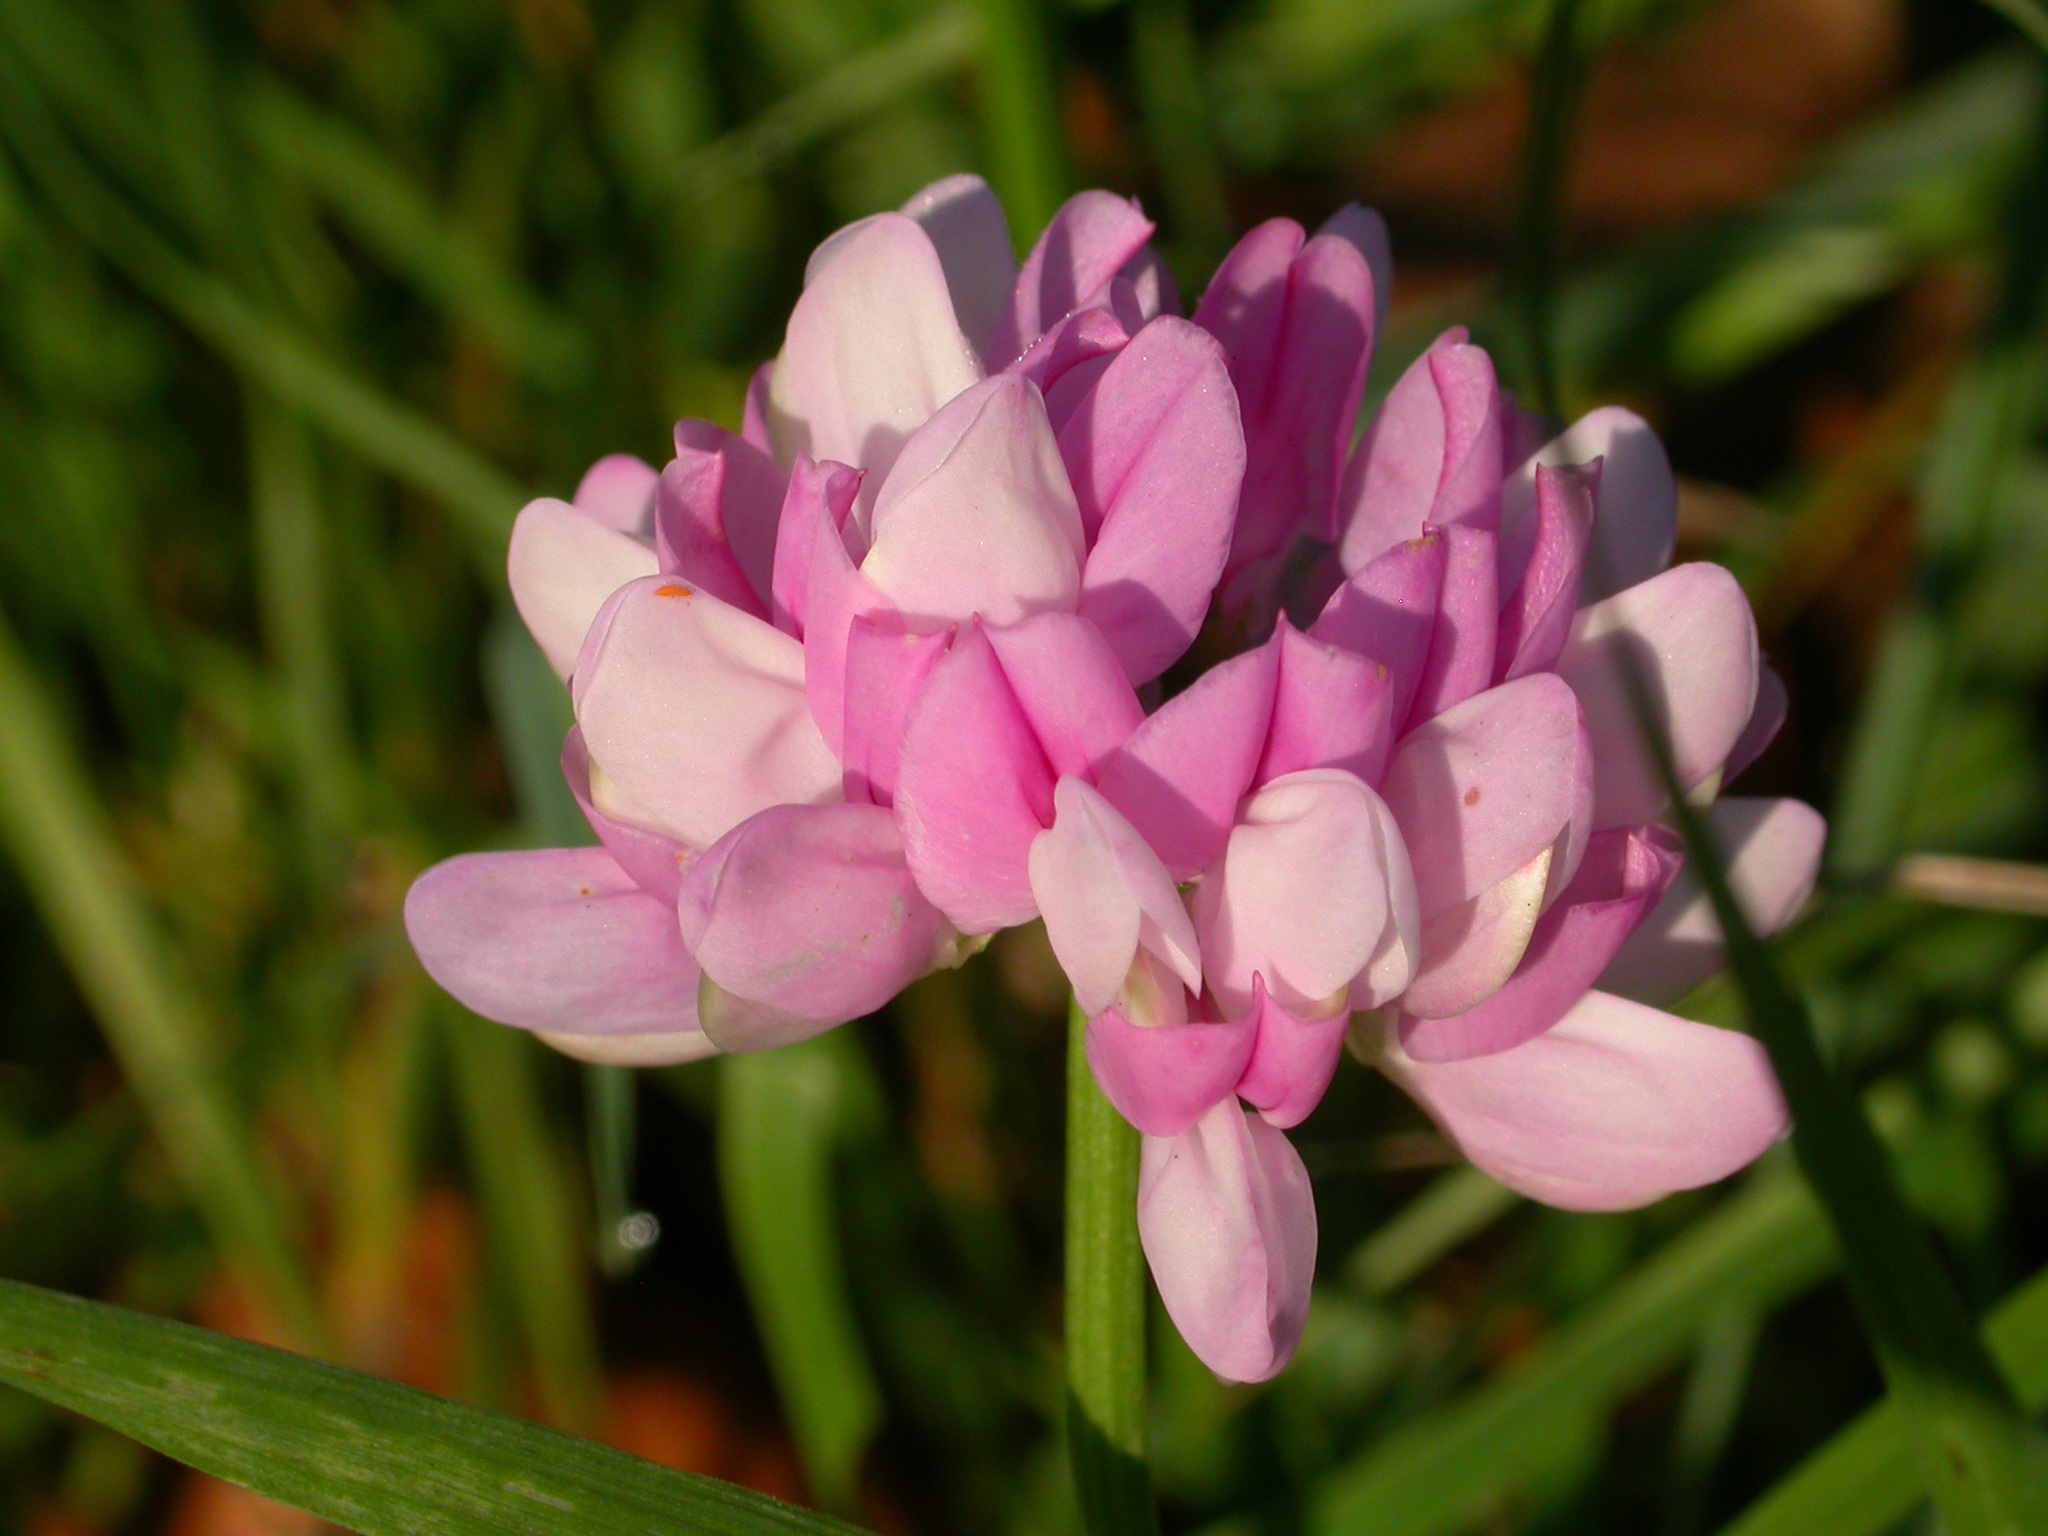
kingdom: Plantae
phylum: Tracheophyta
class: Magnoliopsida
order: Fabales
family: Fabaceae
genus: Coronilla
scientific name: Coronilla varia
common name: Crownvetch
